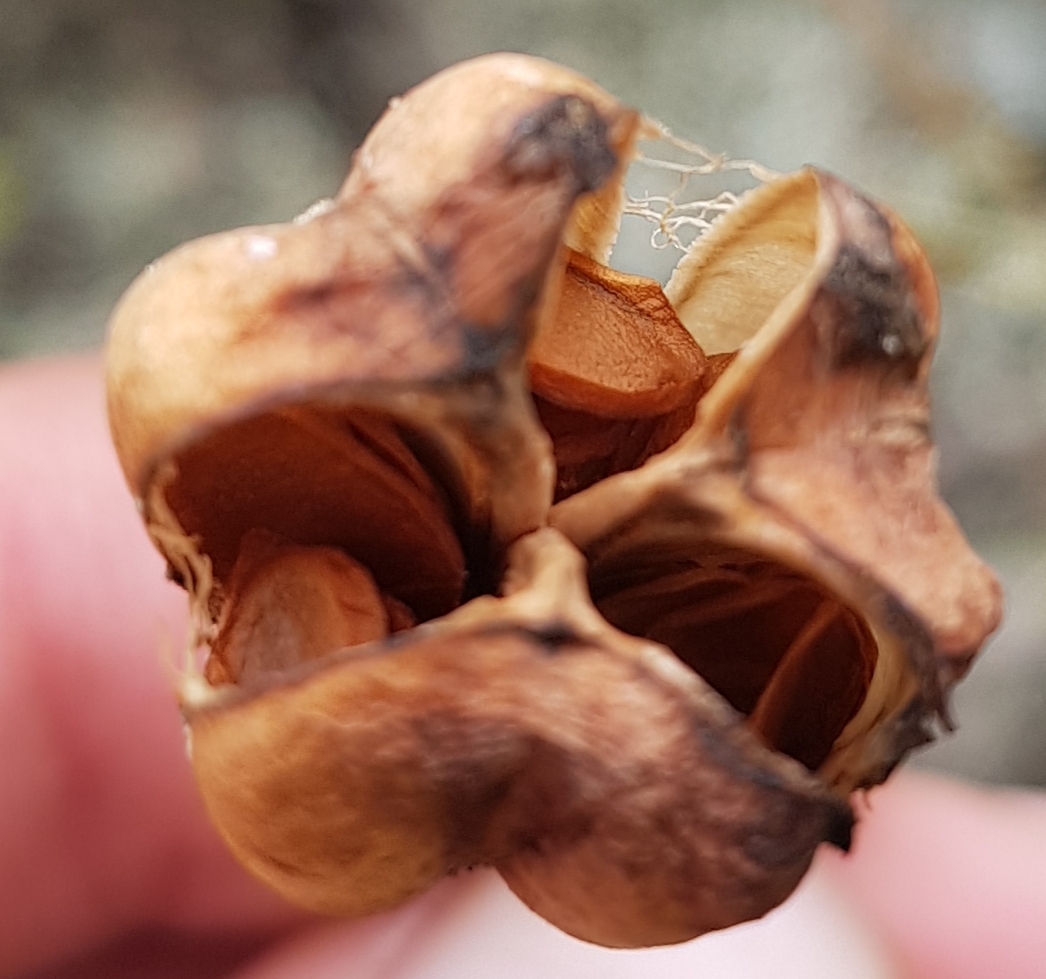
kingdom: Plantae
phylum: Tracheophyta
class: Liliopsida
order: Liliales
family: Liliaceae
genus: Lilium
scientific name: Lilium pumilum
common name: Coral lily
